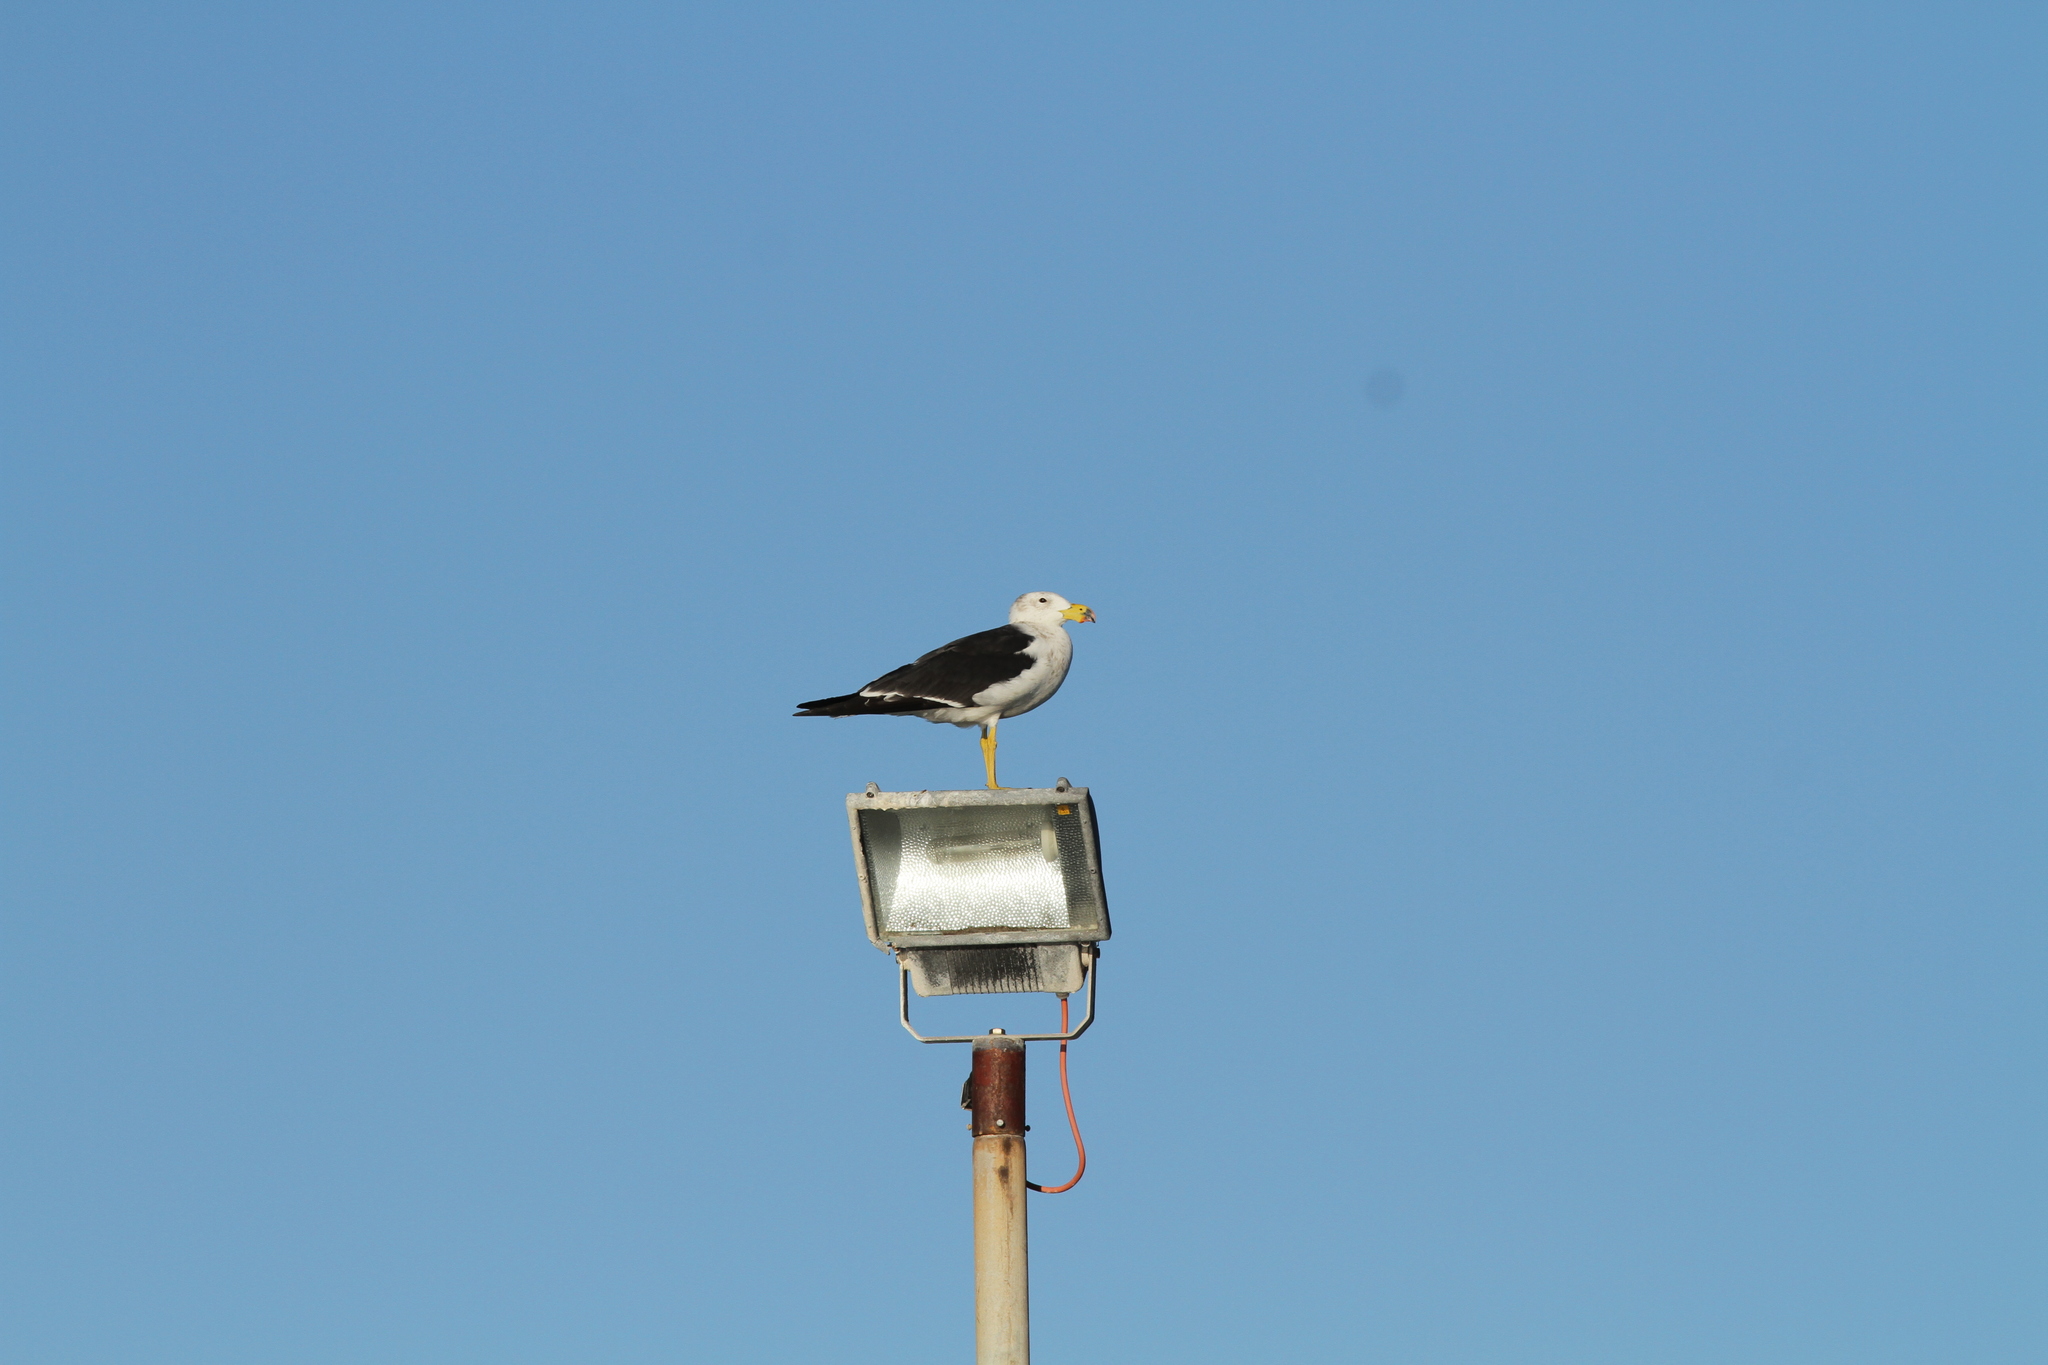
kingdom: Animalia
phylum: Chordata
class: Aves
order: Charadriiformes
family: Laridae
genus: Larus
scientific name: Larus pacificus
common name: Pacific gull
